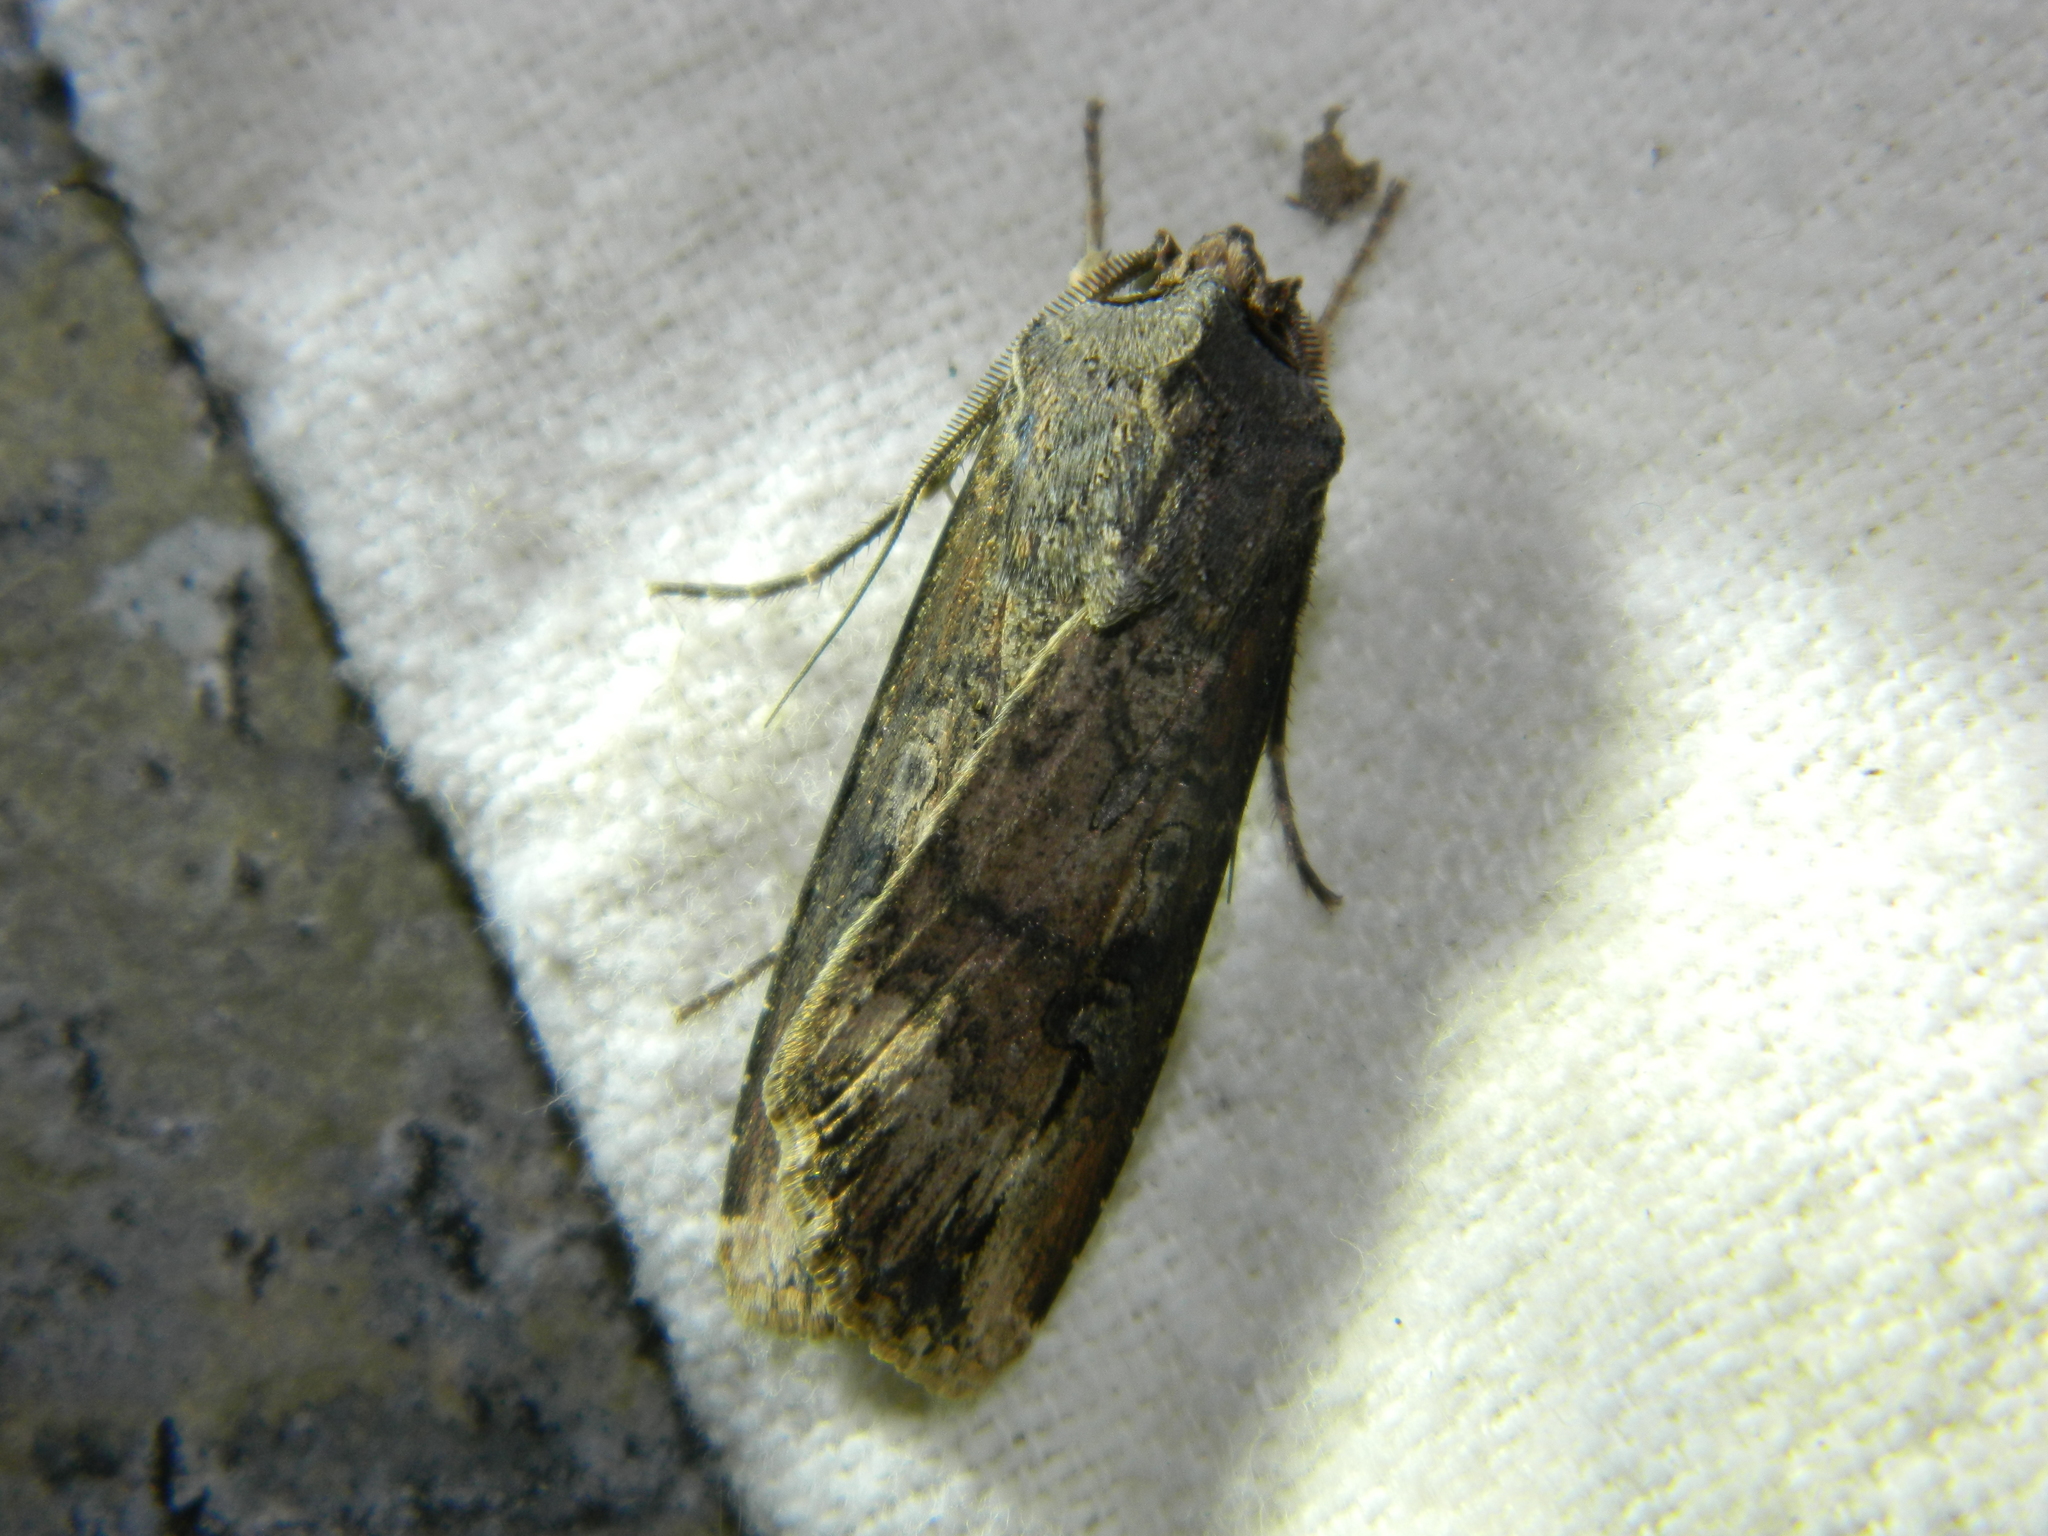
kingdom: Animalia
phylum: Arthropoda
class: Insecta
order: Lepidoptera
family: Noctuidae
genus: Agrotis
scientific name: Agrotis ipsilon
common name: Dark sword-grass
